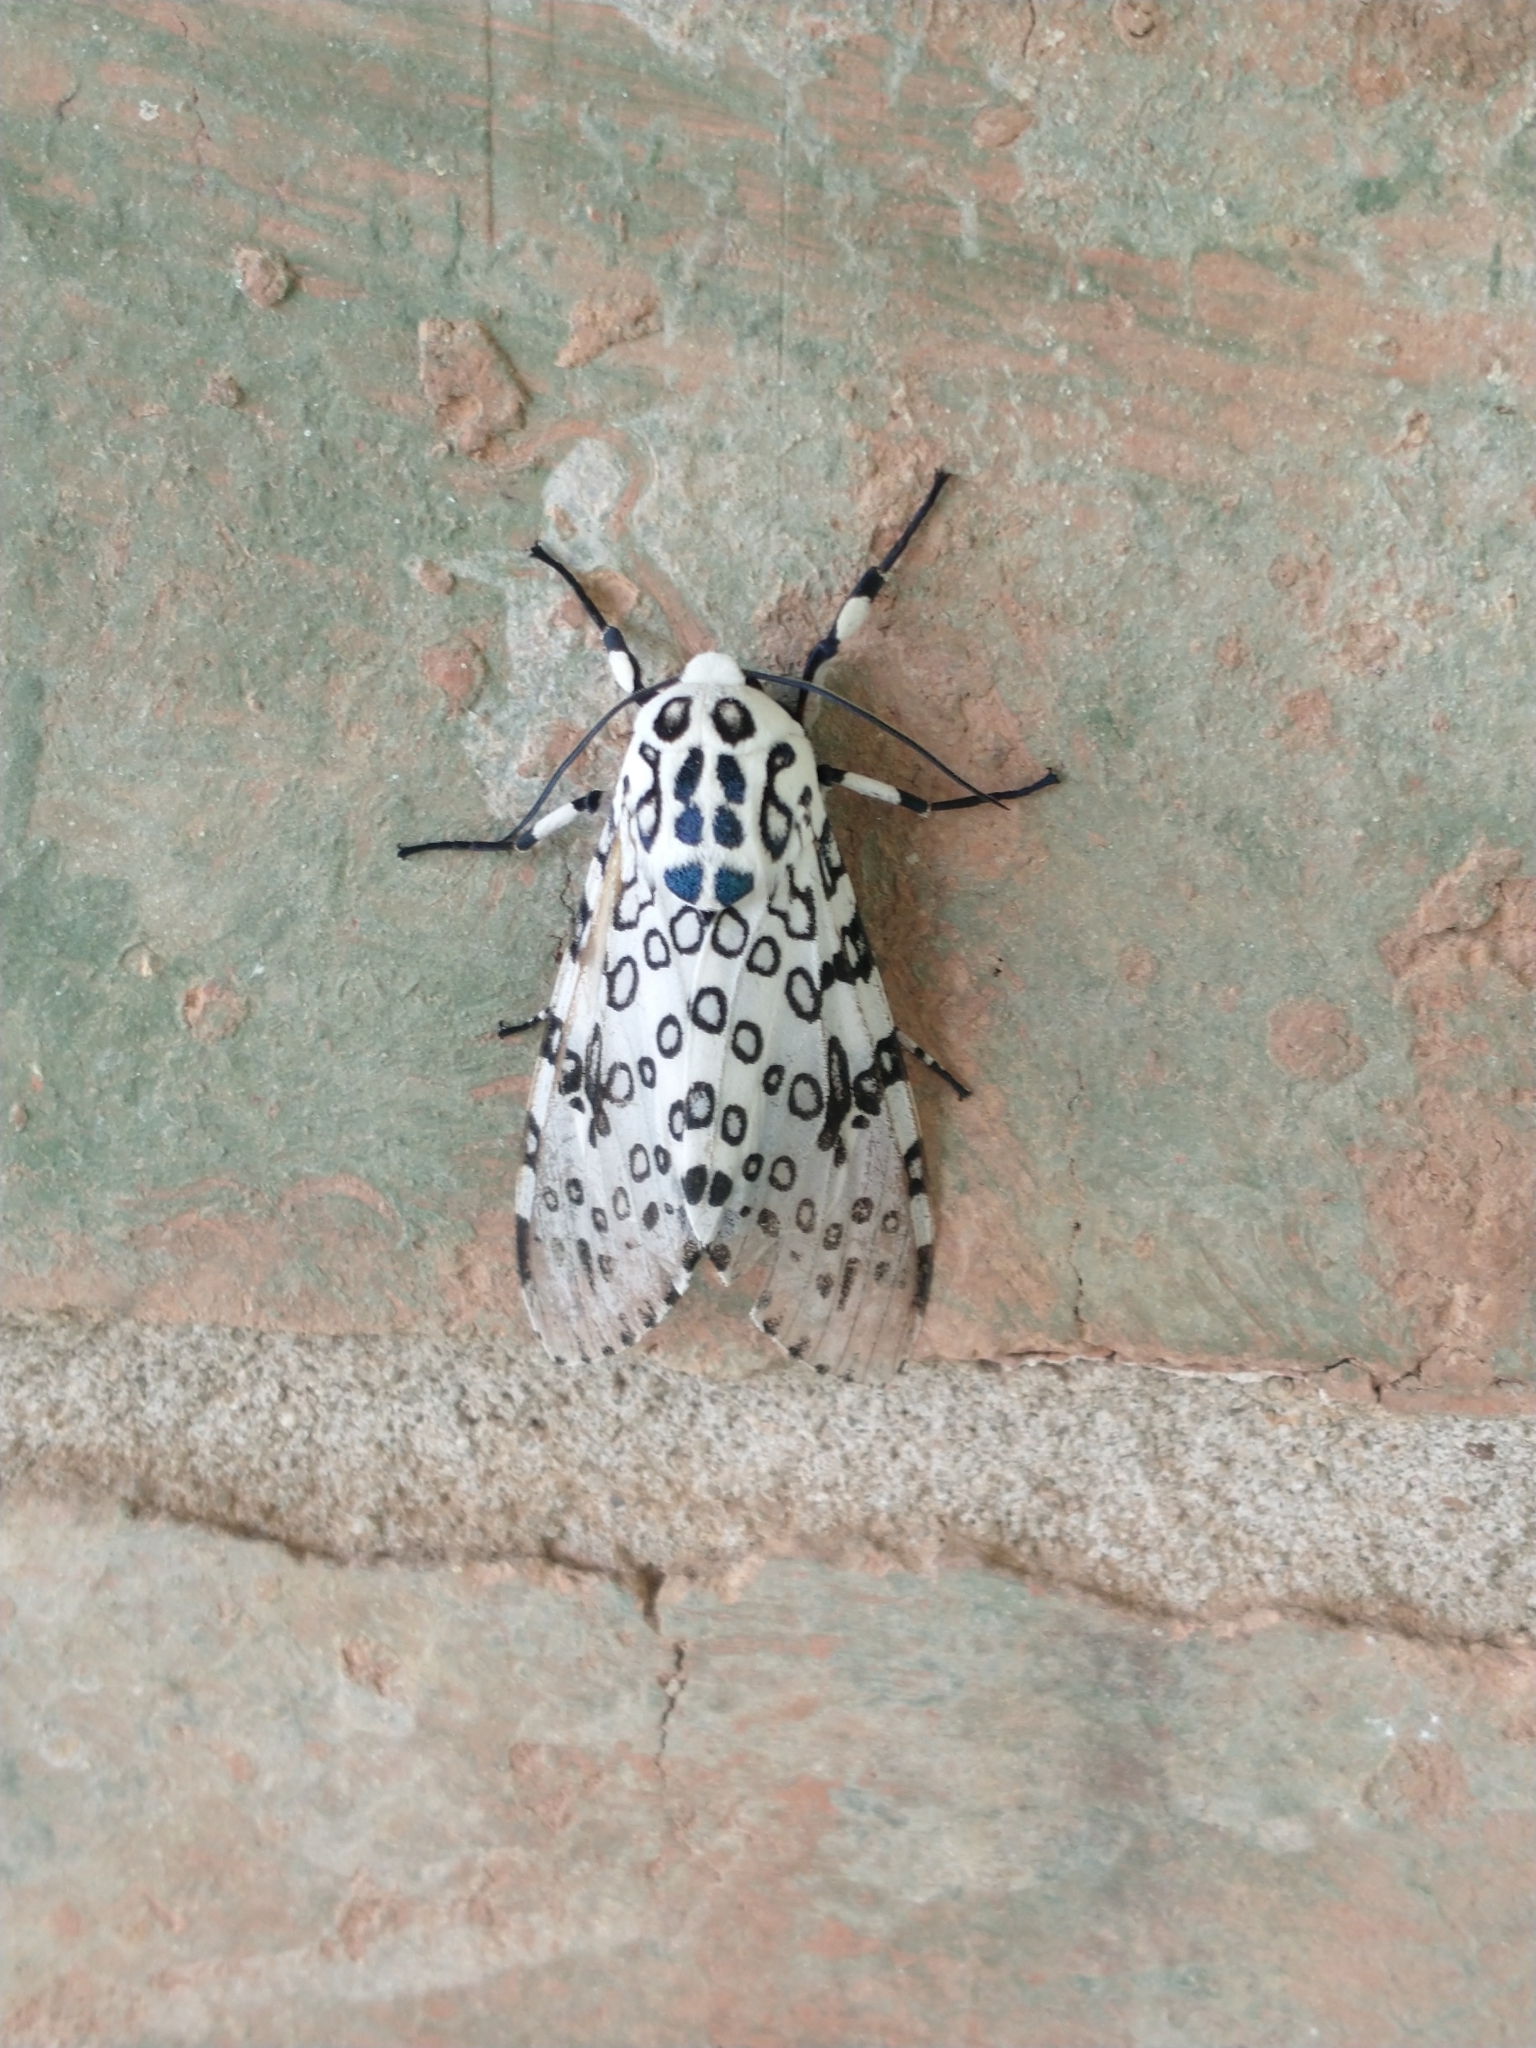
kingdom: Animalia
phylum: Arthropoda
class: Insecta
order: Lepidoptera
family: Erebidae
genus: Hypercompe
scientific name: Hypercompe scribonia
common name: Giant leopard moth
